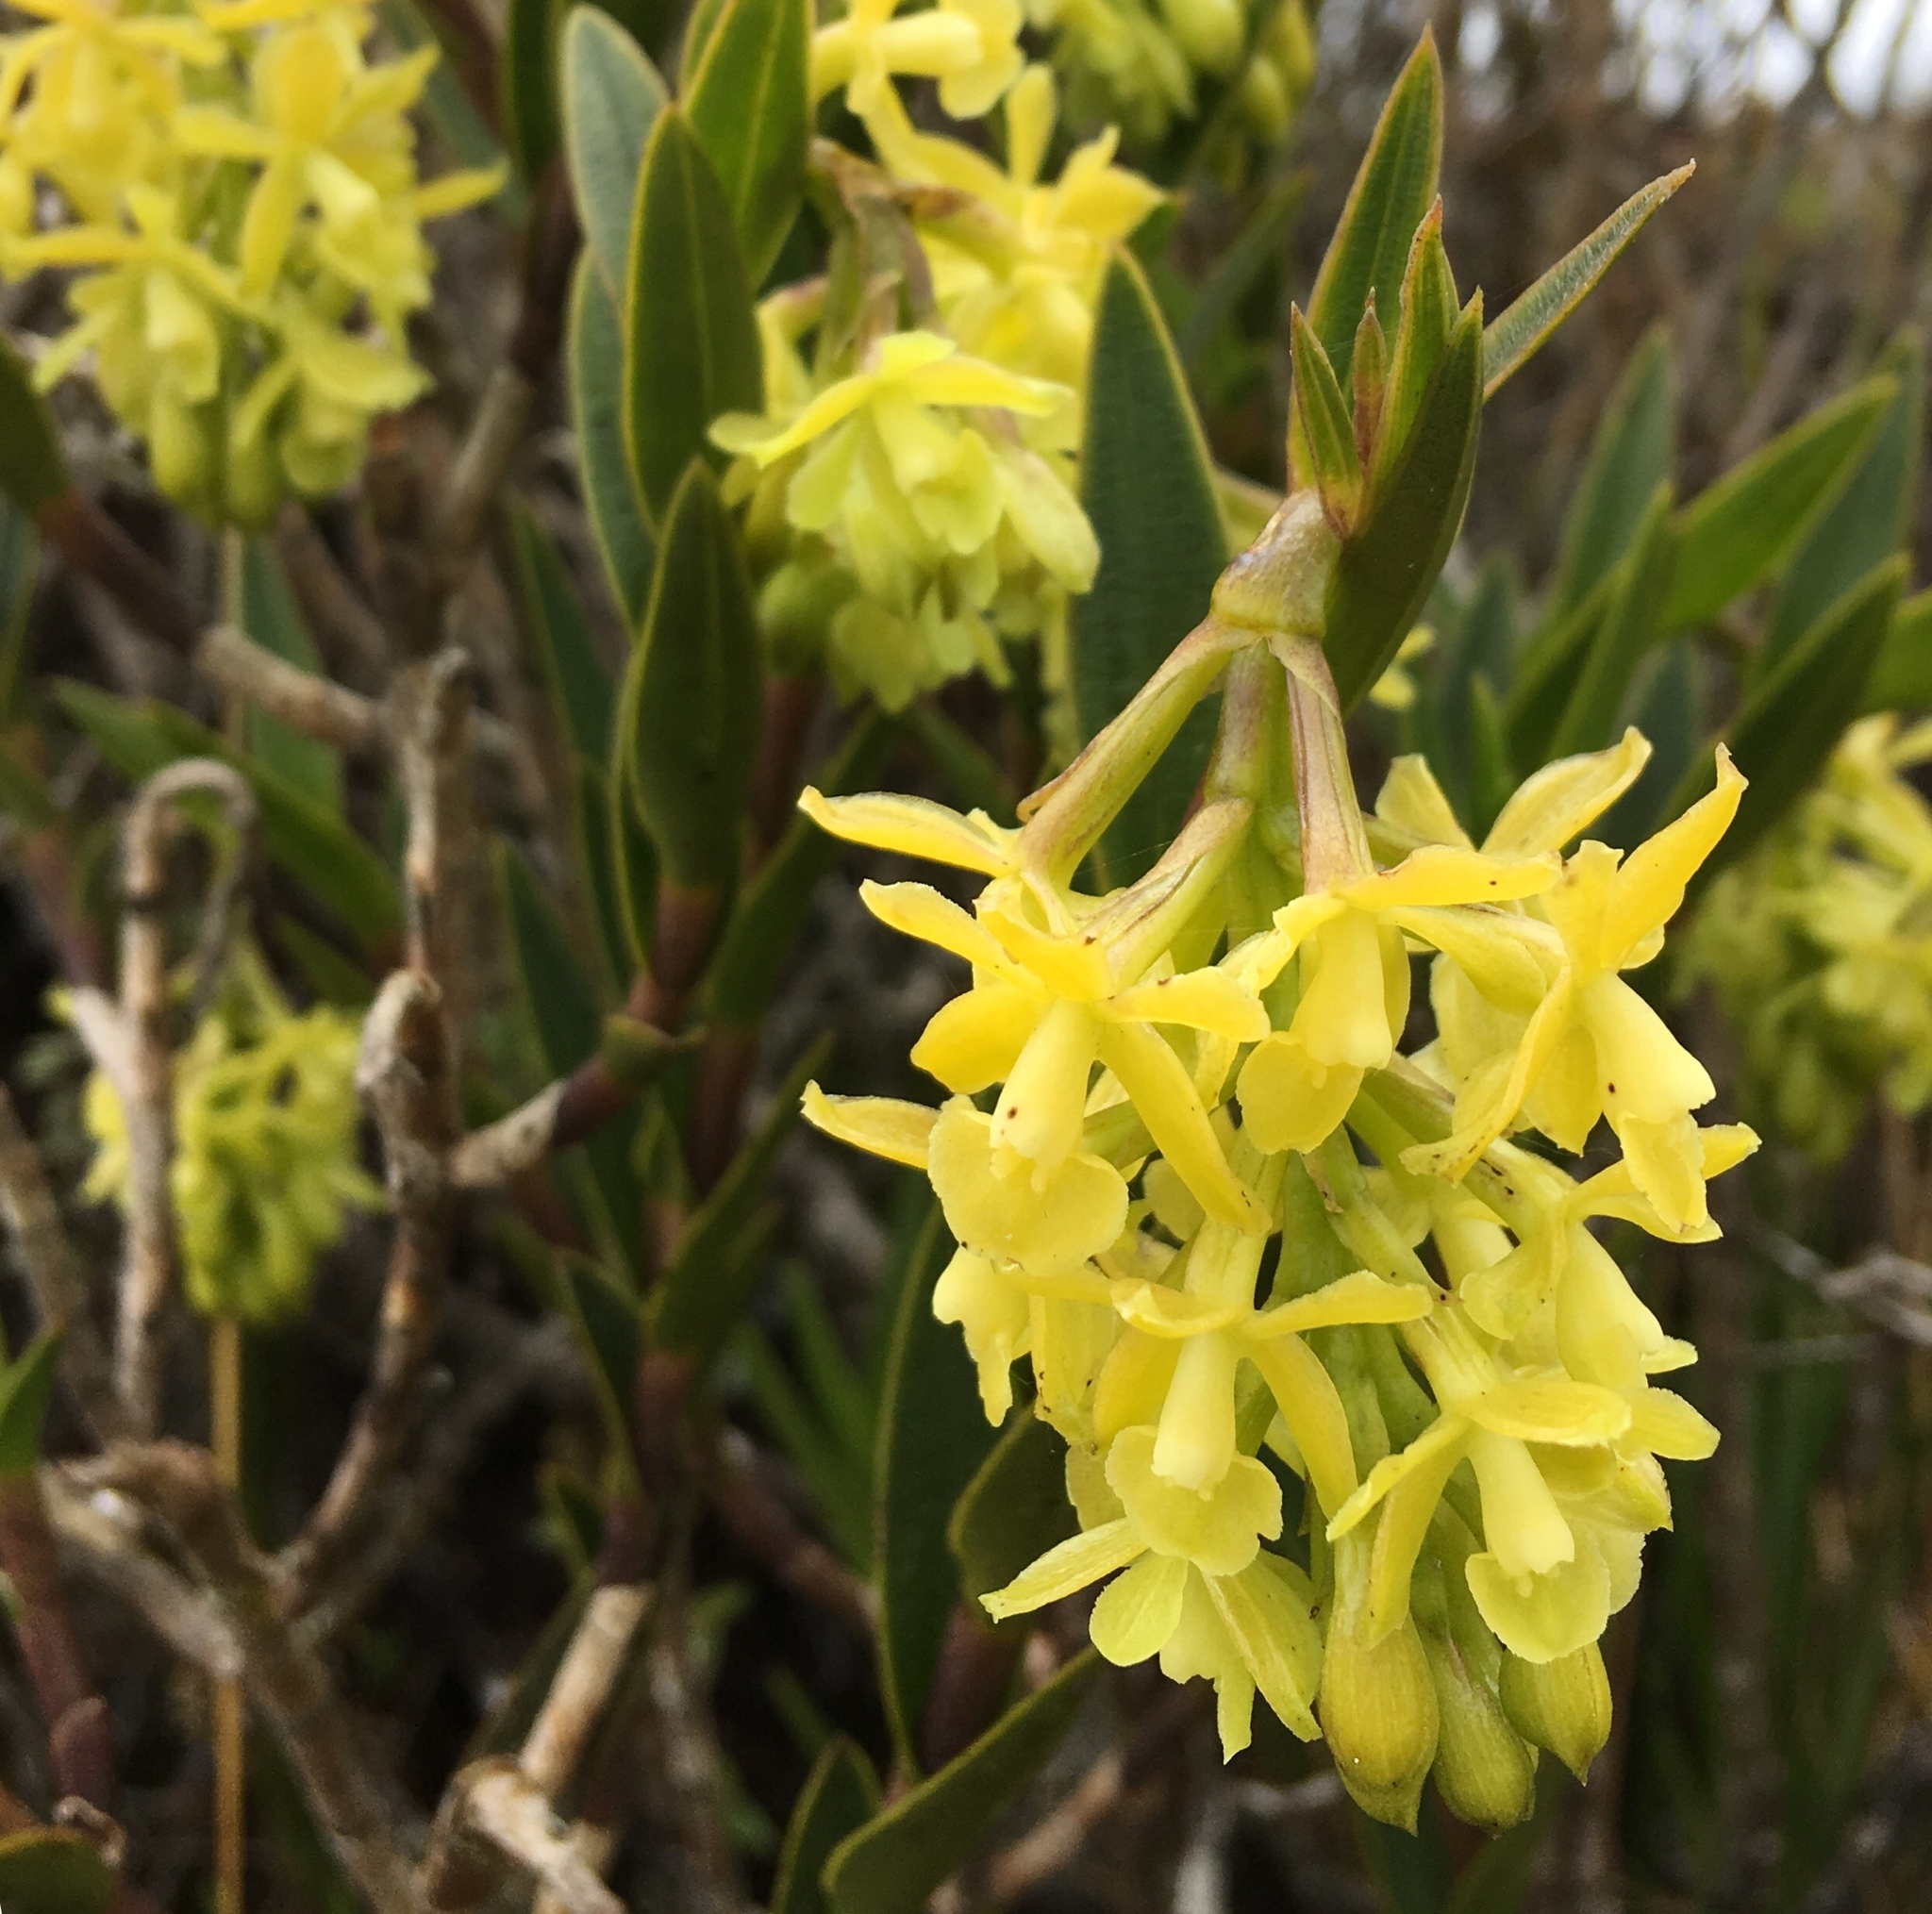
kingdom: Plantae
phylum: Tracheophyta
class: Liliopsida
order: Asparagales
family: Orchidaceae
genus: Epidendrum
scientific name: Epidendrum zipaquiranum
